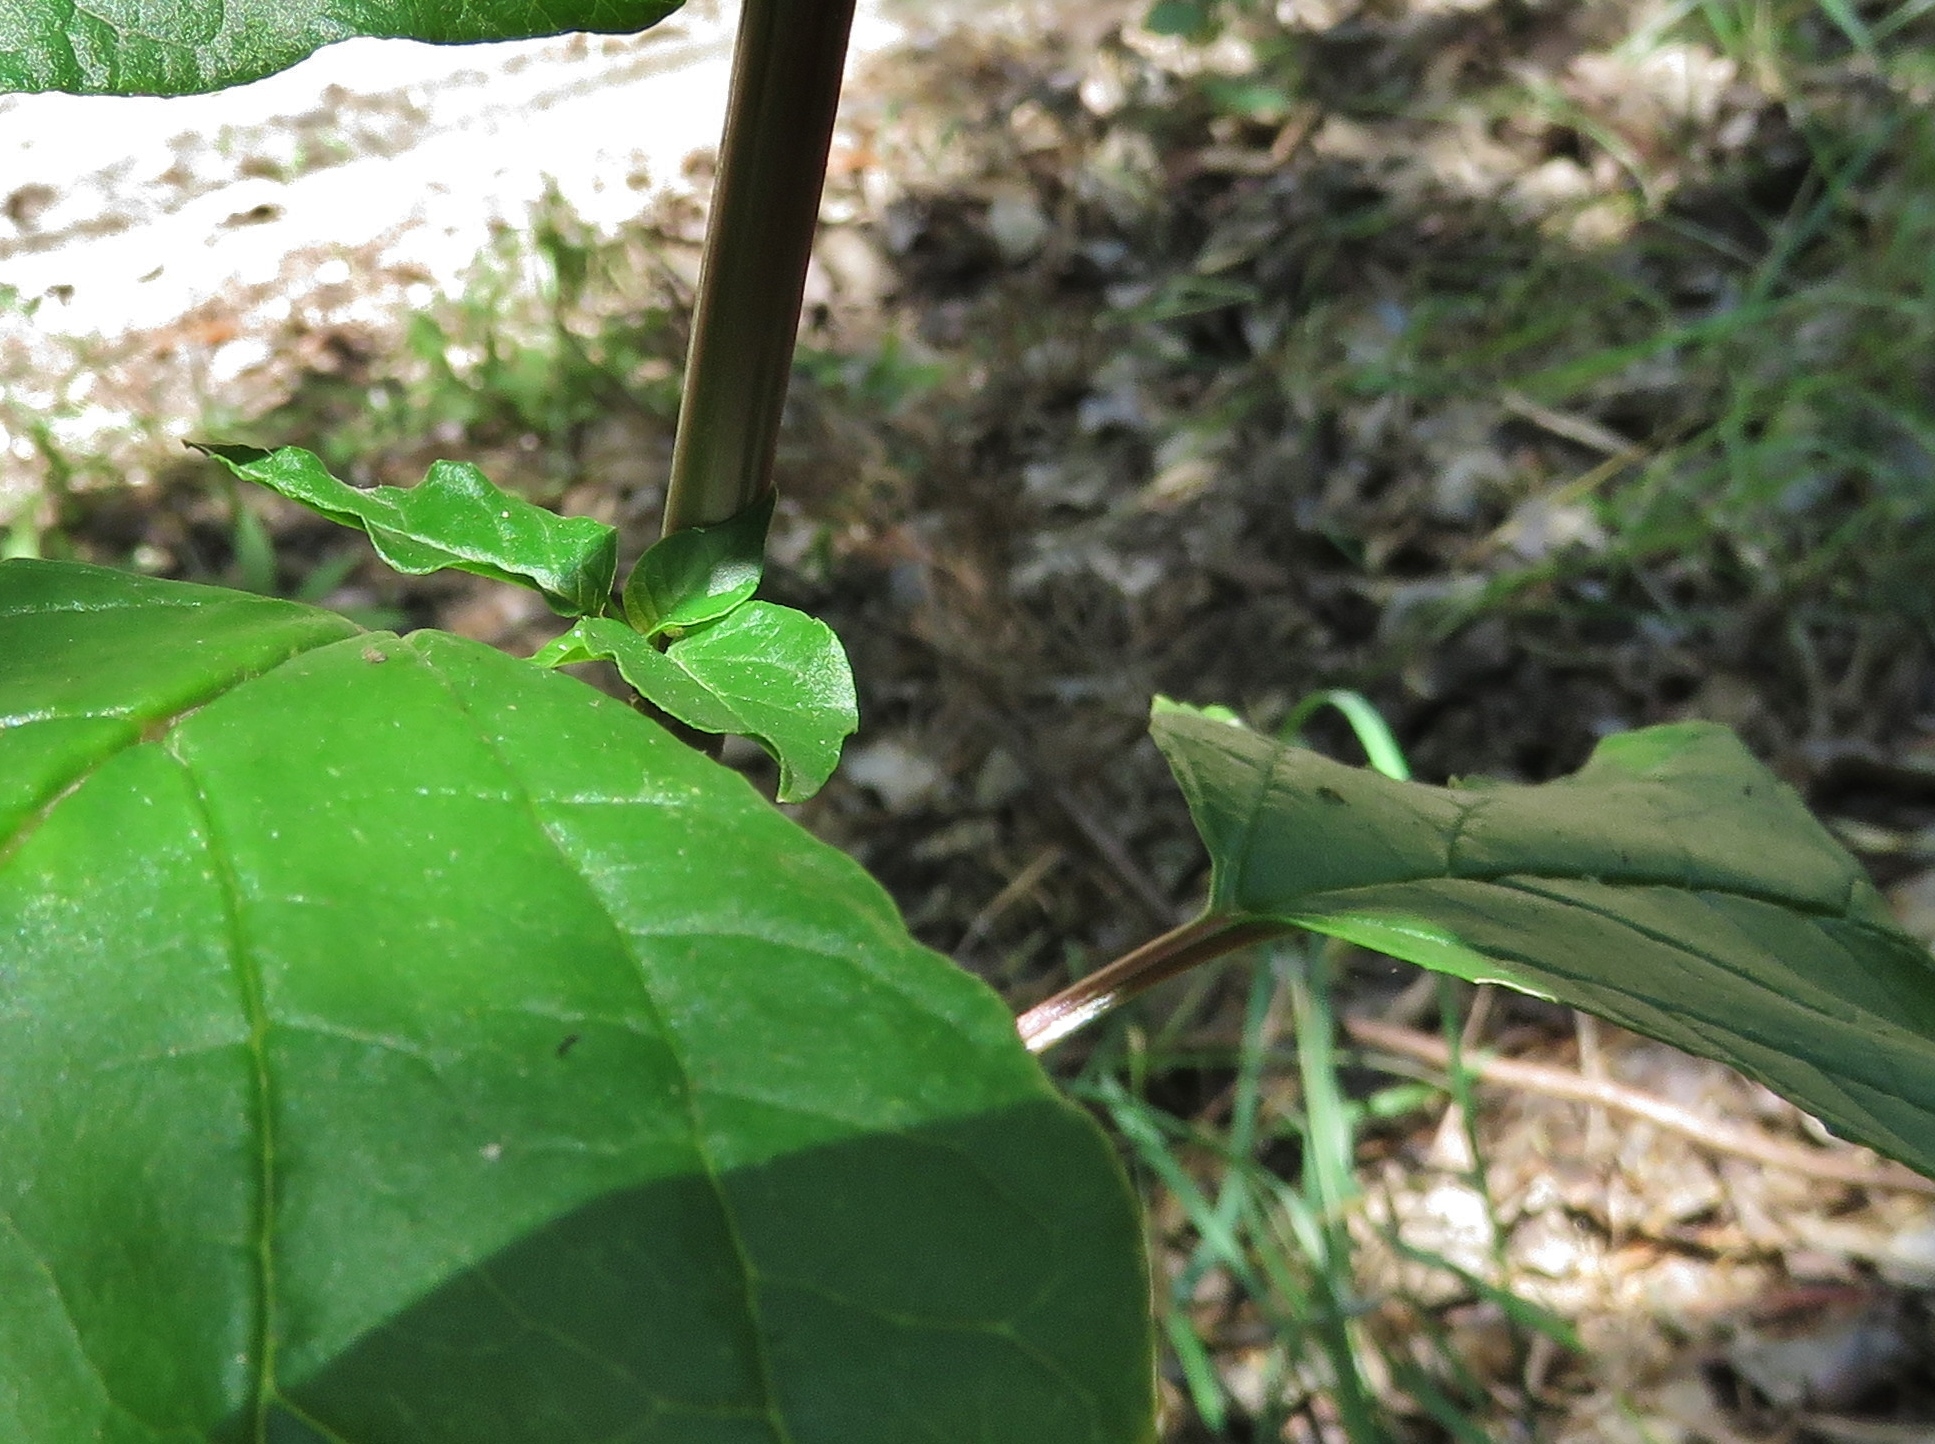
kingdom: Plantae
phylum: Tracheophyta
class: Magnoliopsida
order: Caryophyllales
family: Phytolaccaceae
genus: Rivina
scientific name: Rivina humilis
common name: Rougeplant
